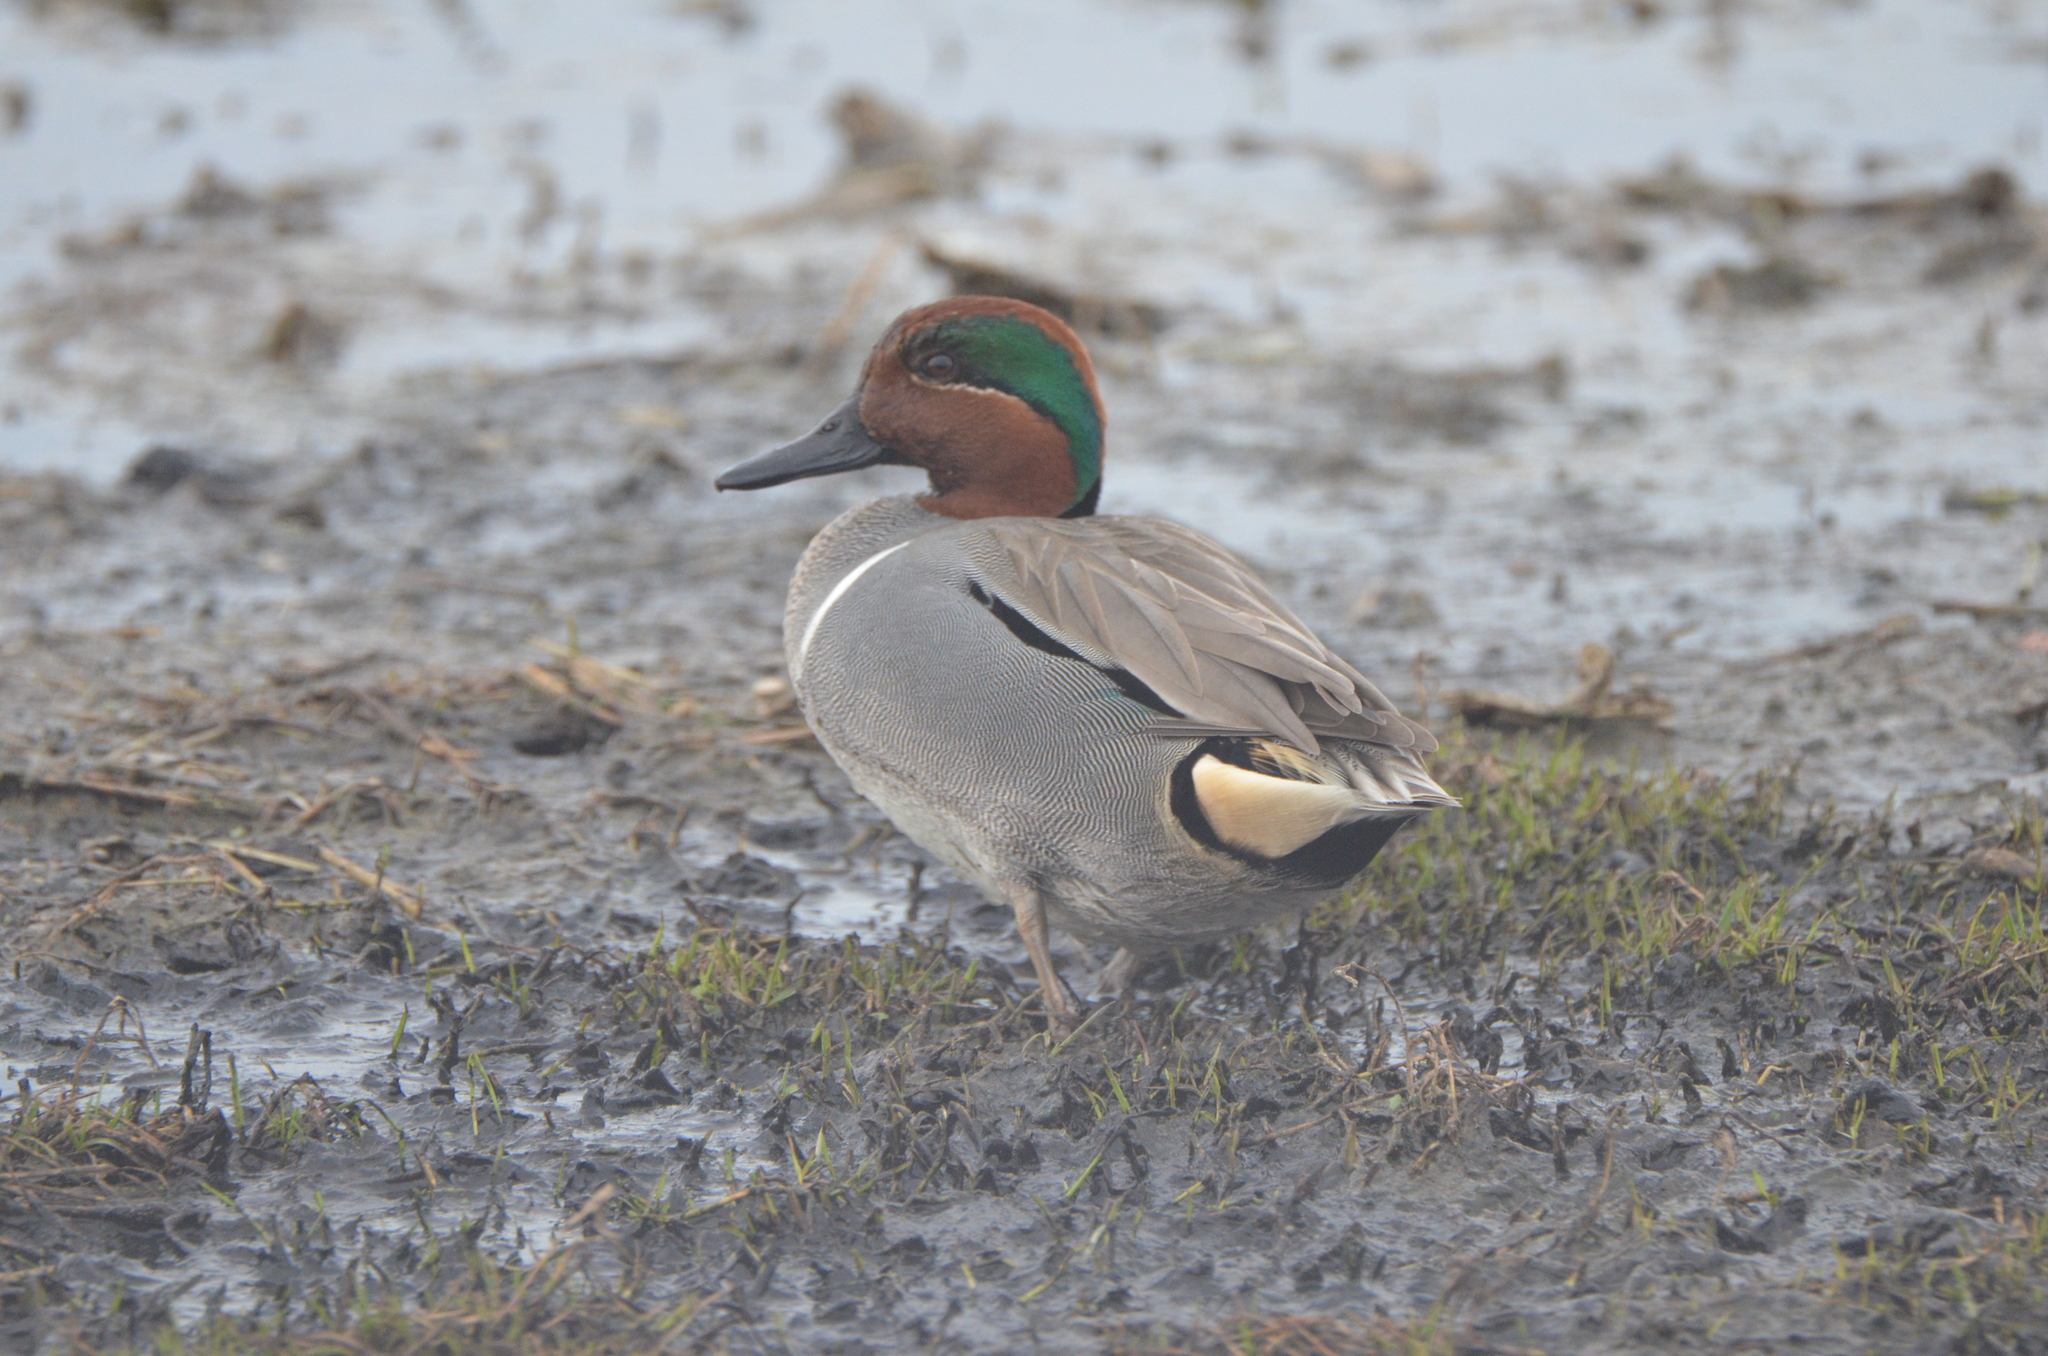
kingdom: Animalia
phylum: Chordata
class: Aves
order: Anseriformes
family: Anatidae
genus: Anas
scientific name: Anas crecca
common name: Eurasian teal
